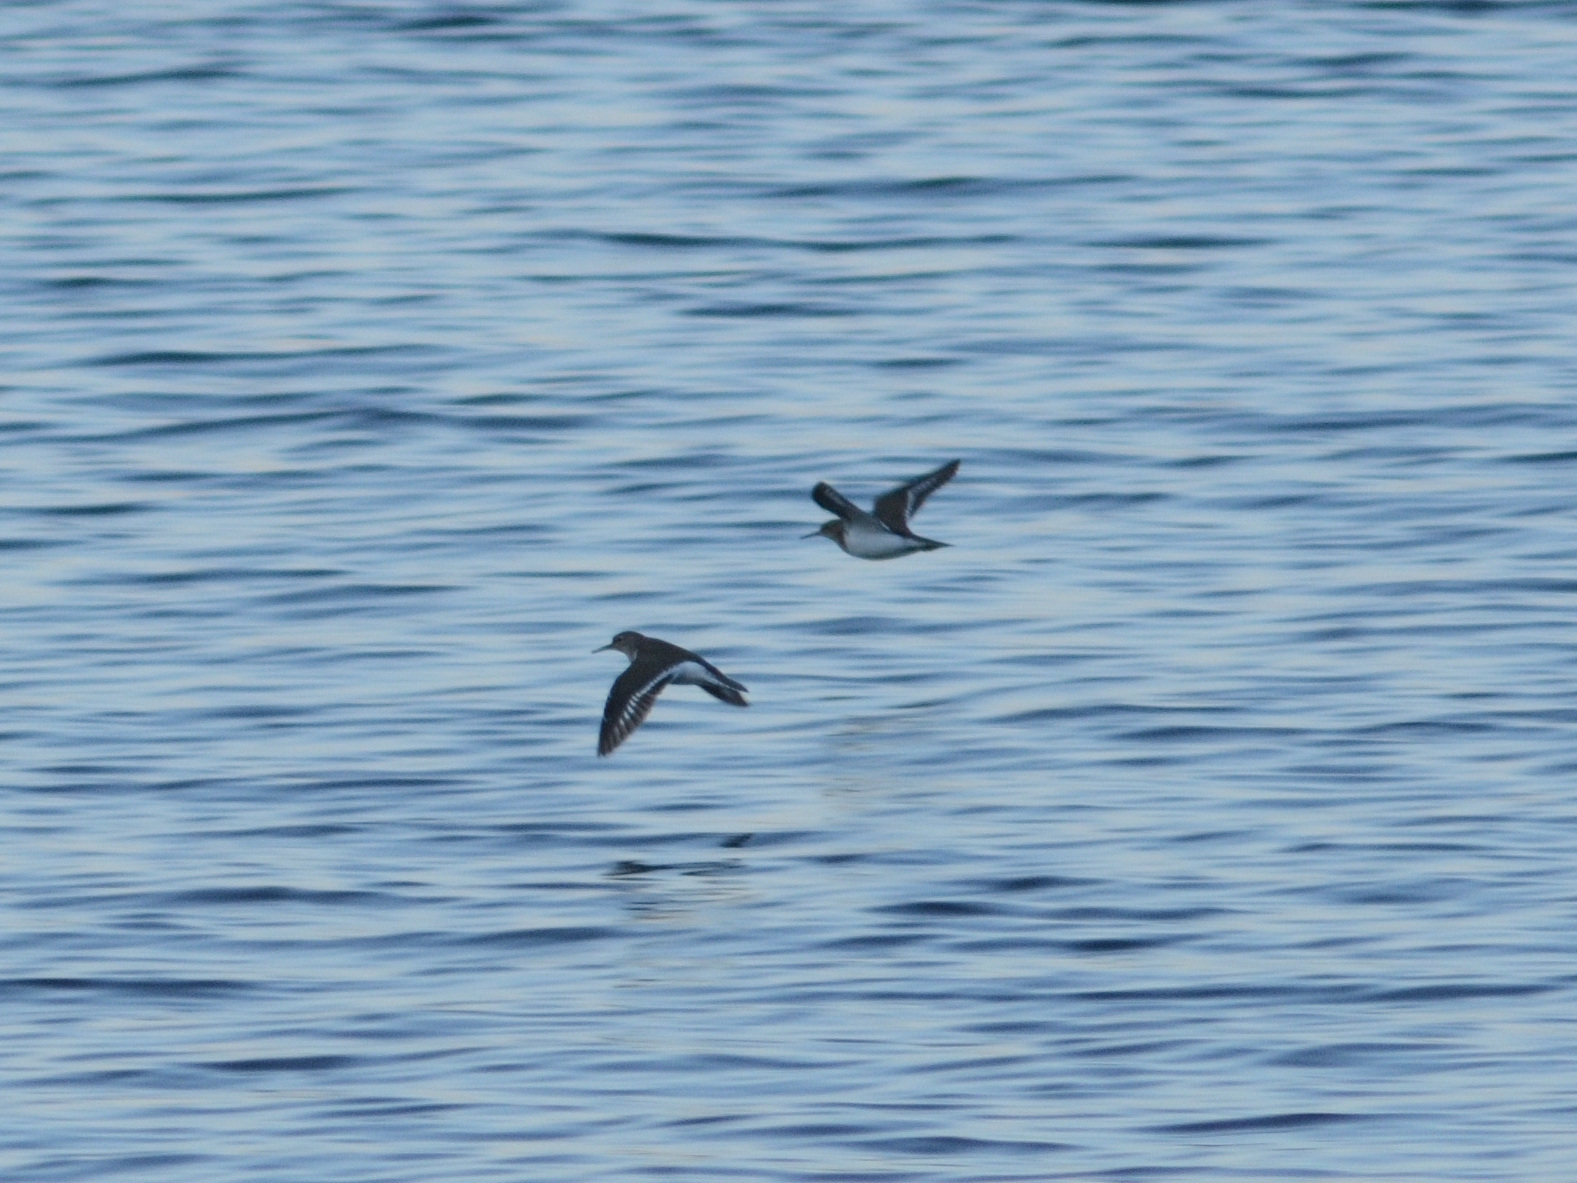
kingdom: Animalia
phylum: Chordata
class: Aves
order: Charadriiformes
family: Scolopacidae
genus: Actitis
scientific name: Actitis hypoleucos
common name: Common sandpiper
